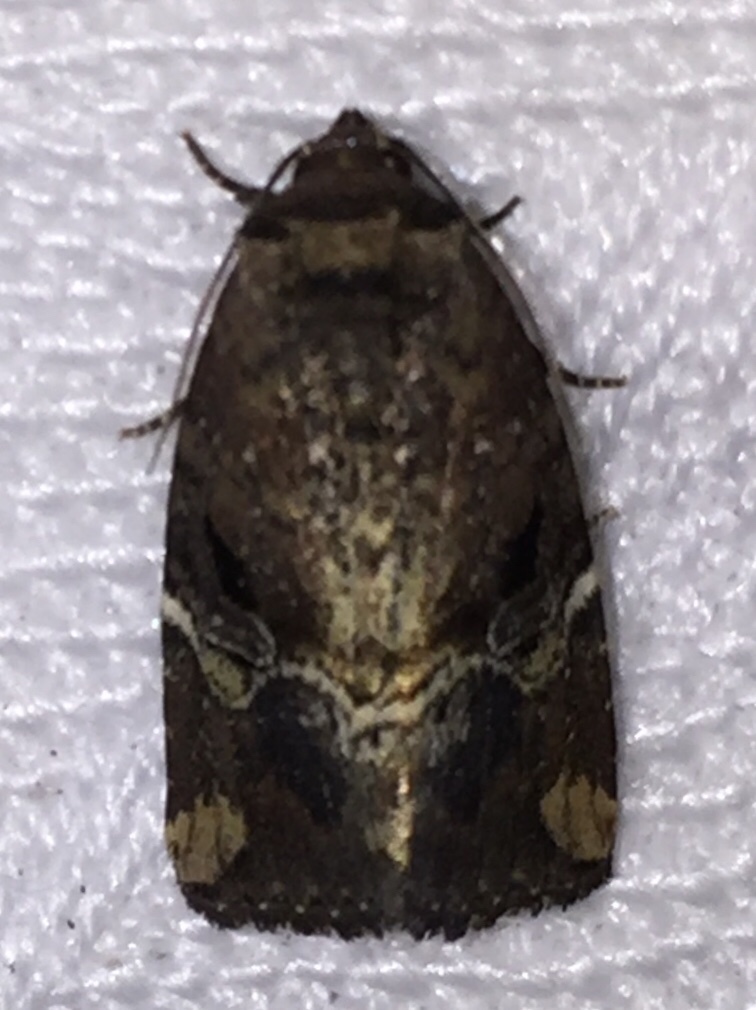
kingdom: Animalia
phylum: Arthropoda
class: Insecta
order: Lepidoptera
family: Noctuidae
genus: Elaphria
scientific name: Elaphria versicolor
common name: Fir harlequin
